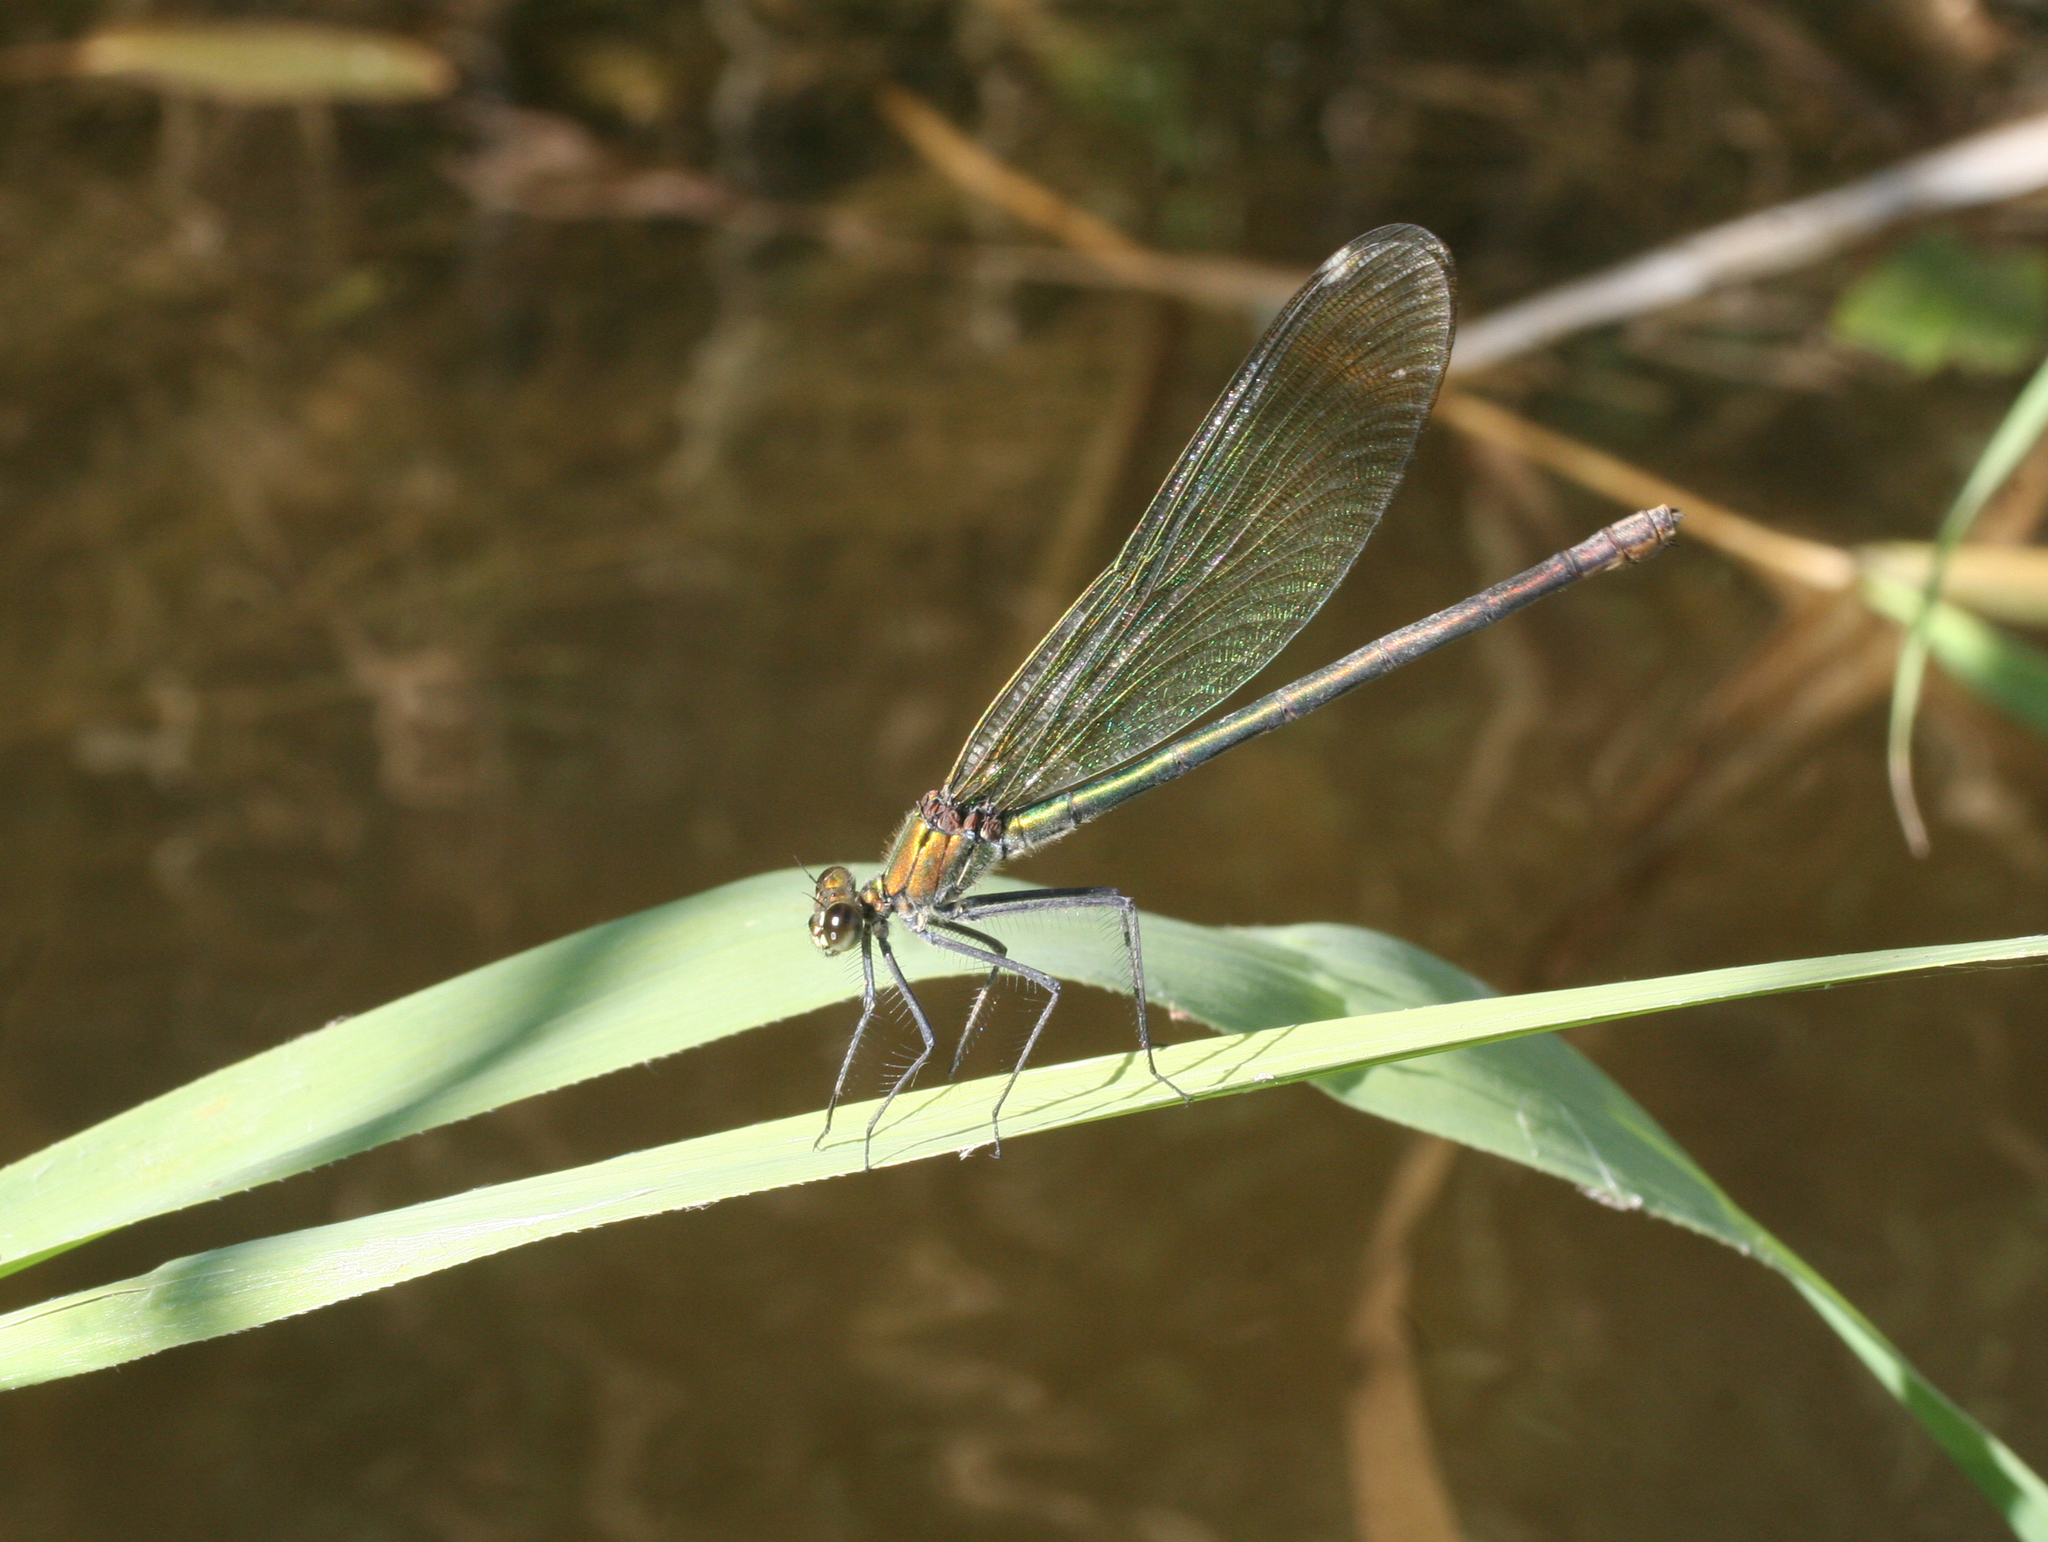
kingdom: Animalia
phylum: Arthropoda
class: Insecta
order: Odonata
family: Calopterygidae
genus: Calopteryx
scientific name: Calopteryx splendens
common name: Banded demoiselle
